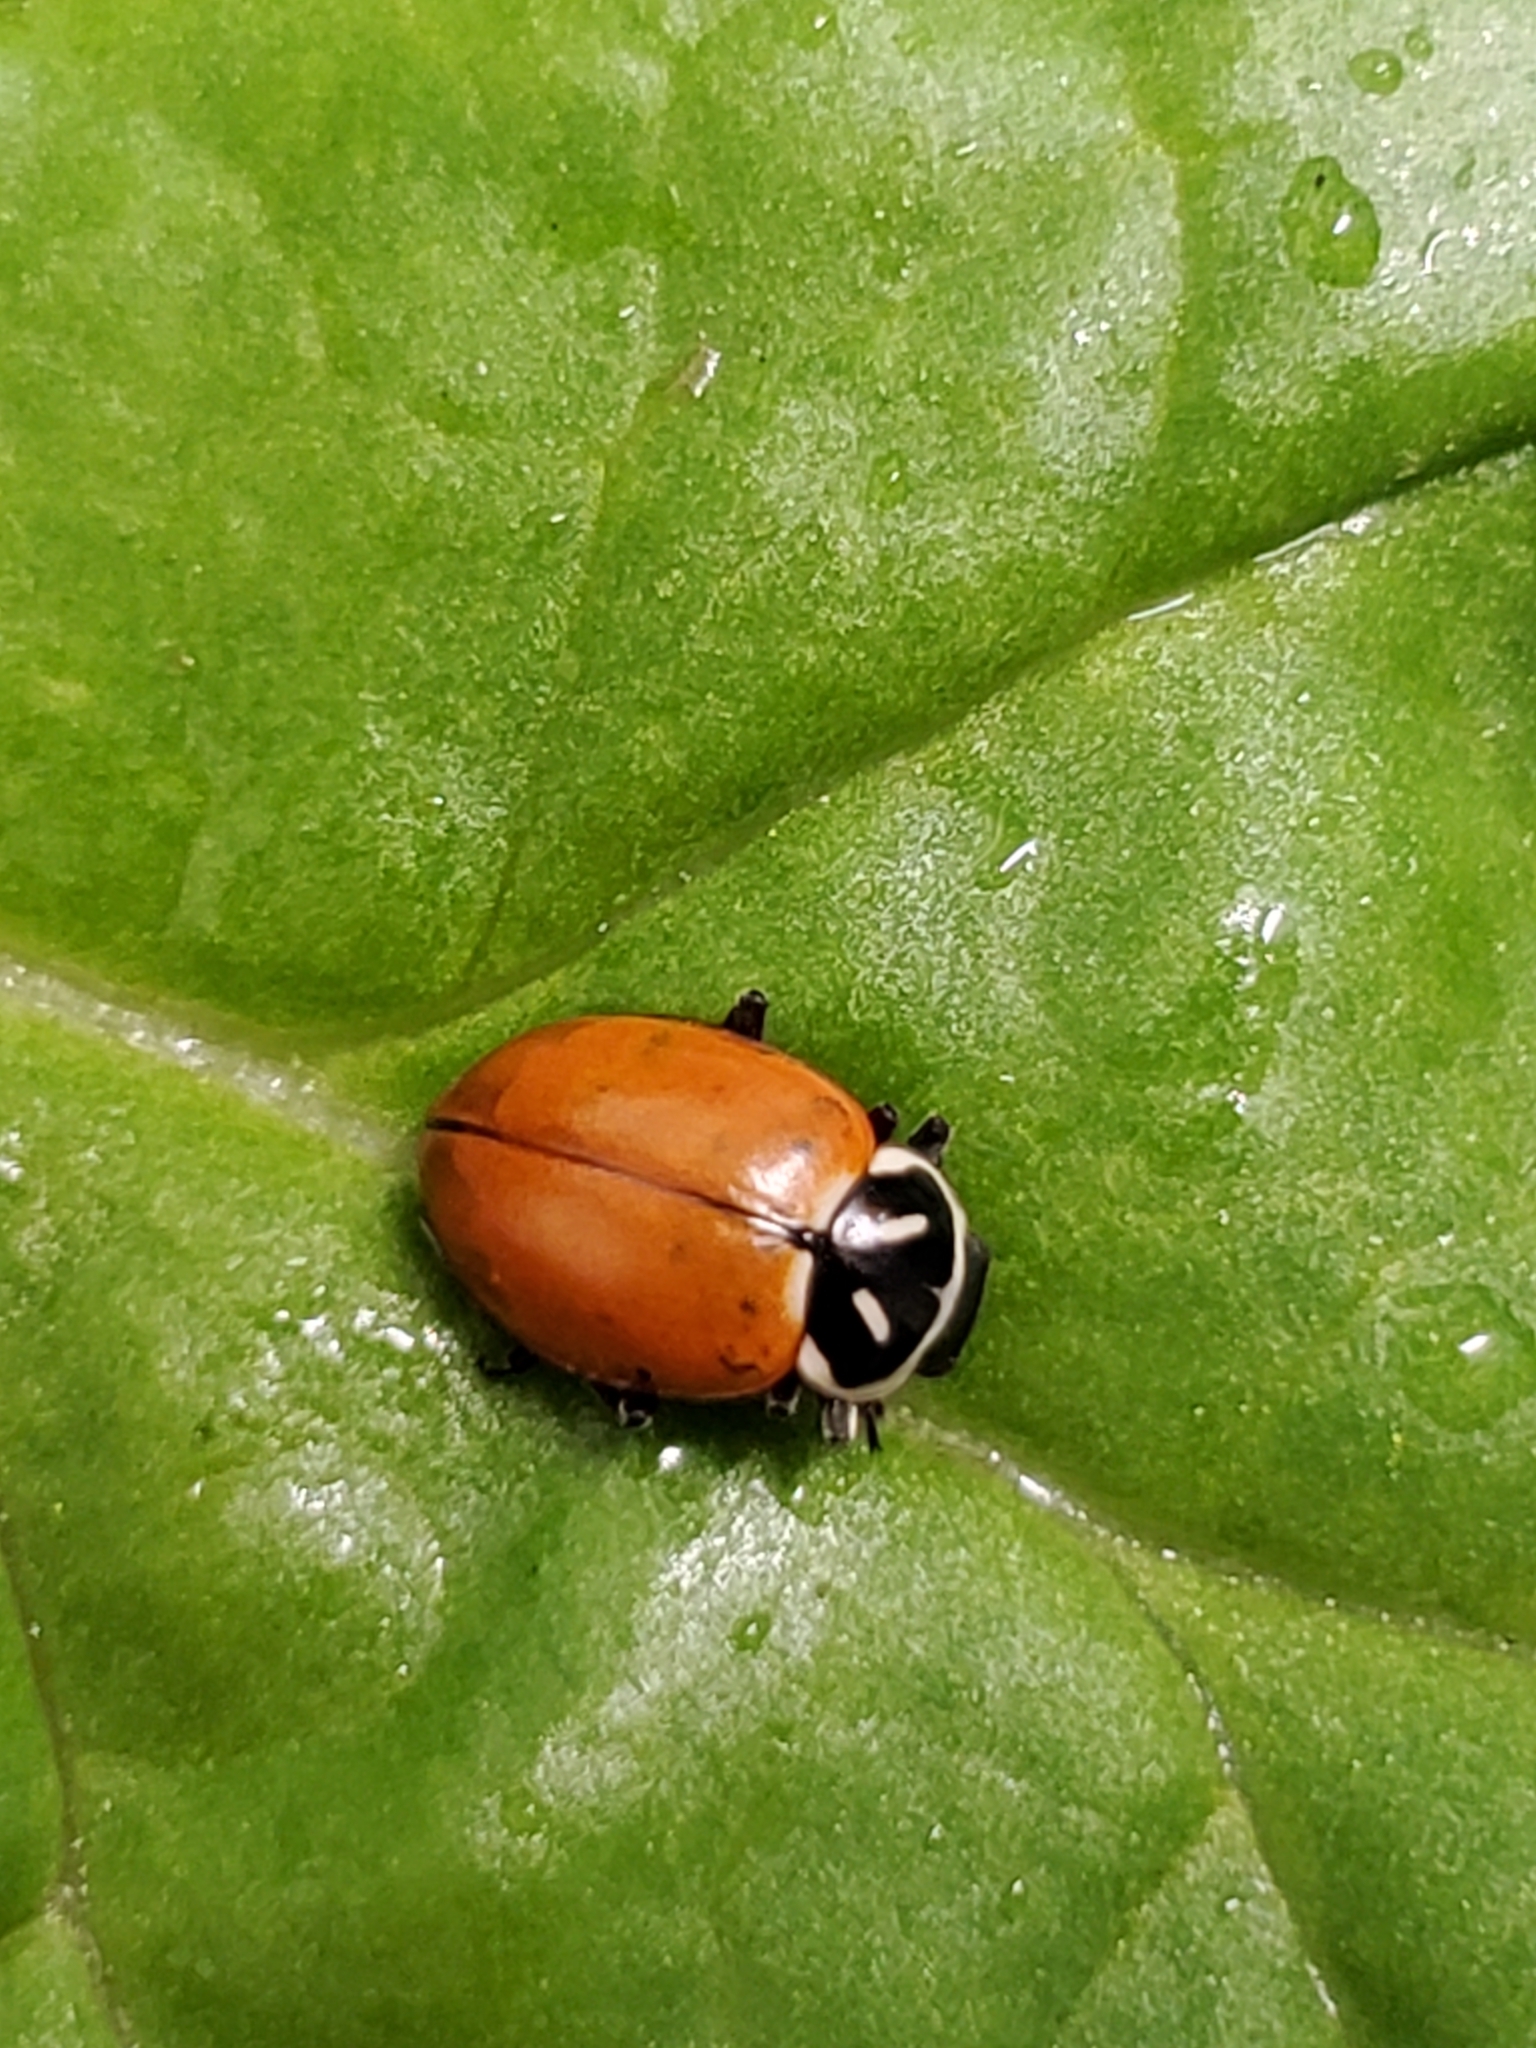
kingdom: Animalia
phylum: Arthropoda
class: Insecta
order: Coleoptera
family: Coccinellidae
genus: Hippodamia
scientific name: Hippodamia convergens
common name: Convergent lady beetle
